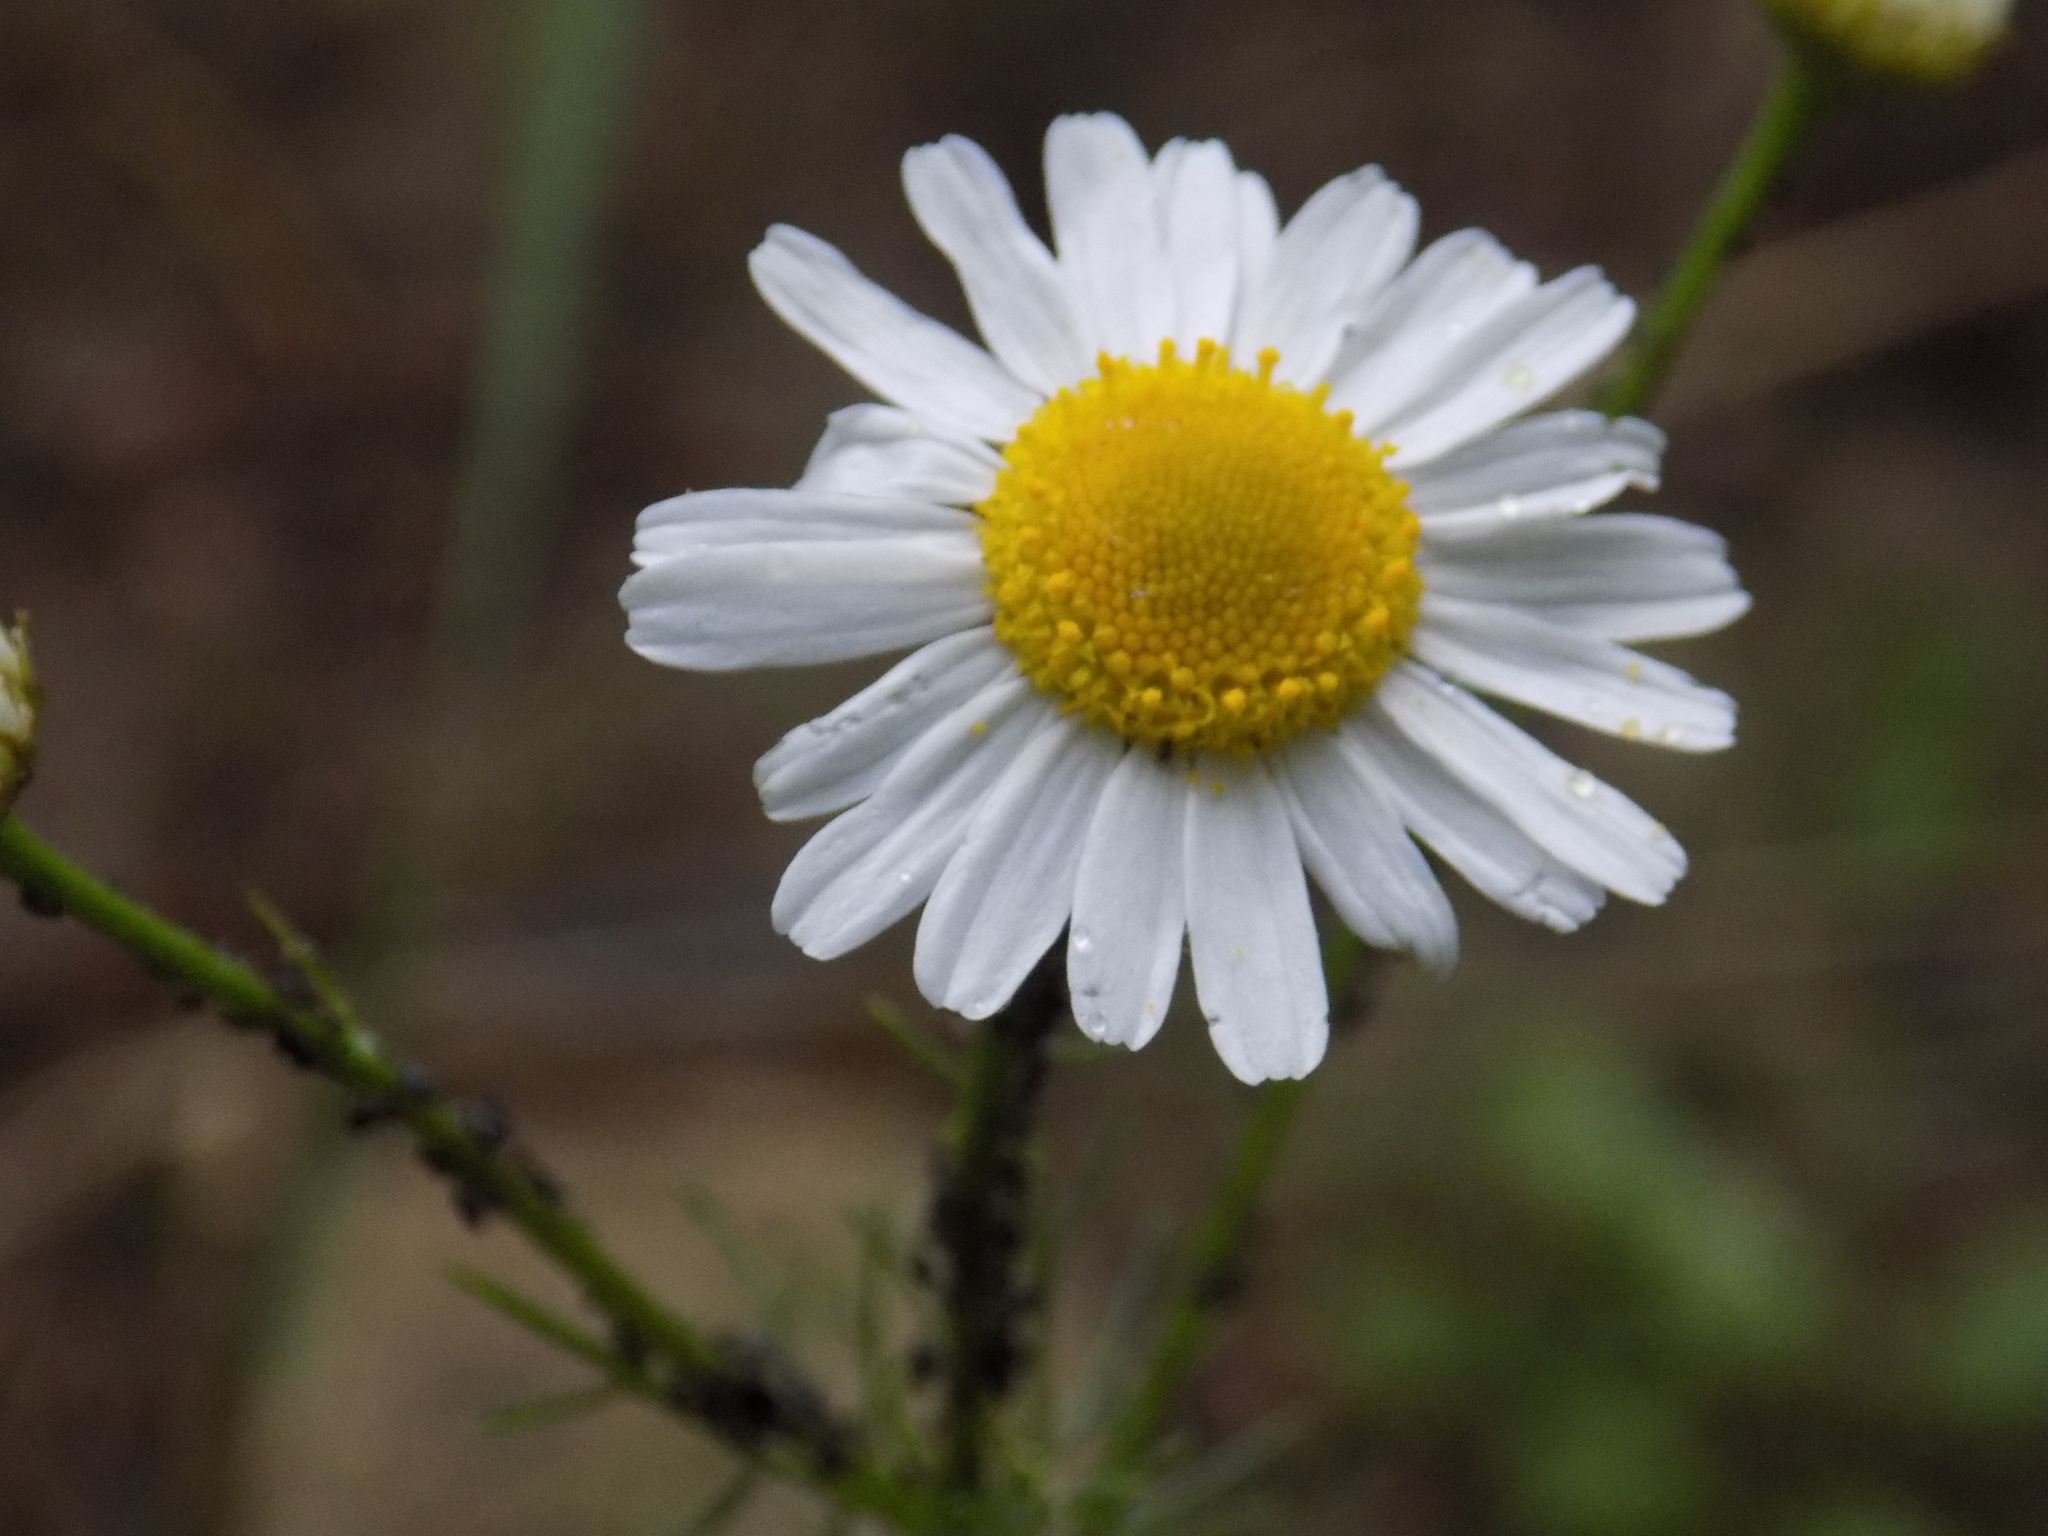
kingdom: Plantae
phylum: Tracheophyta
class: Magnoliopsida
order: Asterales
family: Asteraceae
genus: Tripleurospermum
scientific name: Tripleurospermum inodorum
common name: Scentless mayweed
